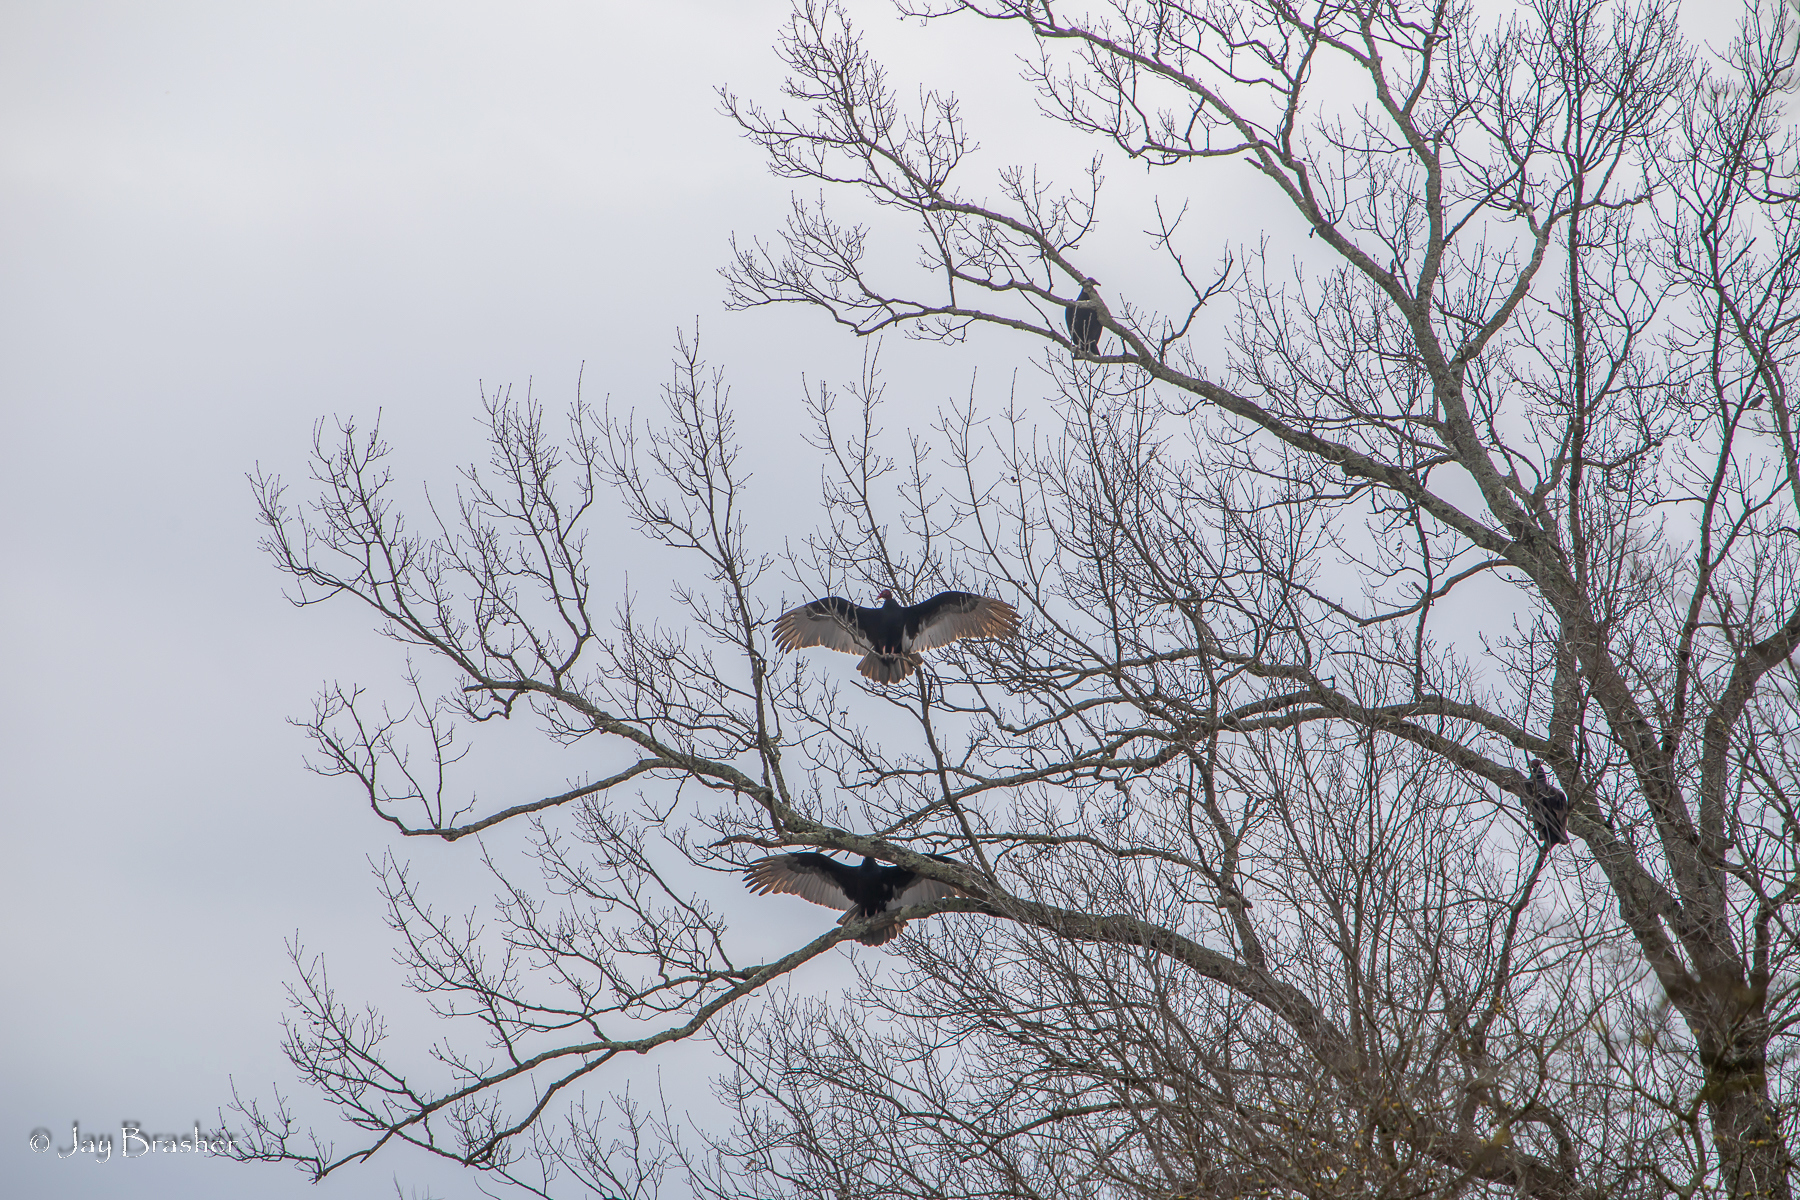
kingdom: Animalia
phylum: Chordata
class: Aves
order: Accipitriformes
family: Cathartidae
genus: Cathartes
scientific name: Cathartes aura
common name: Turkey vulture
